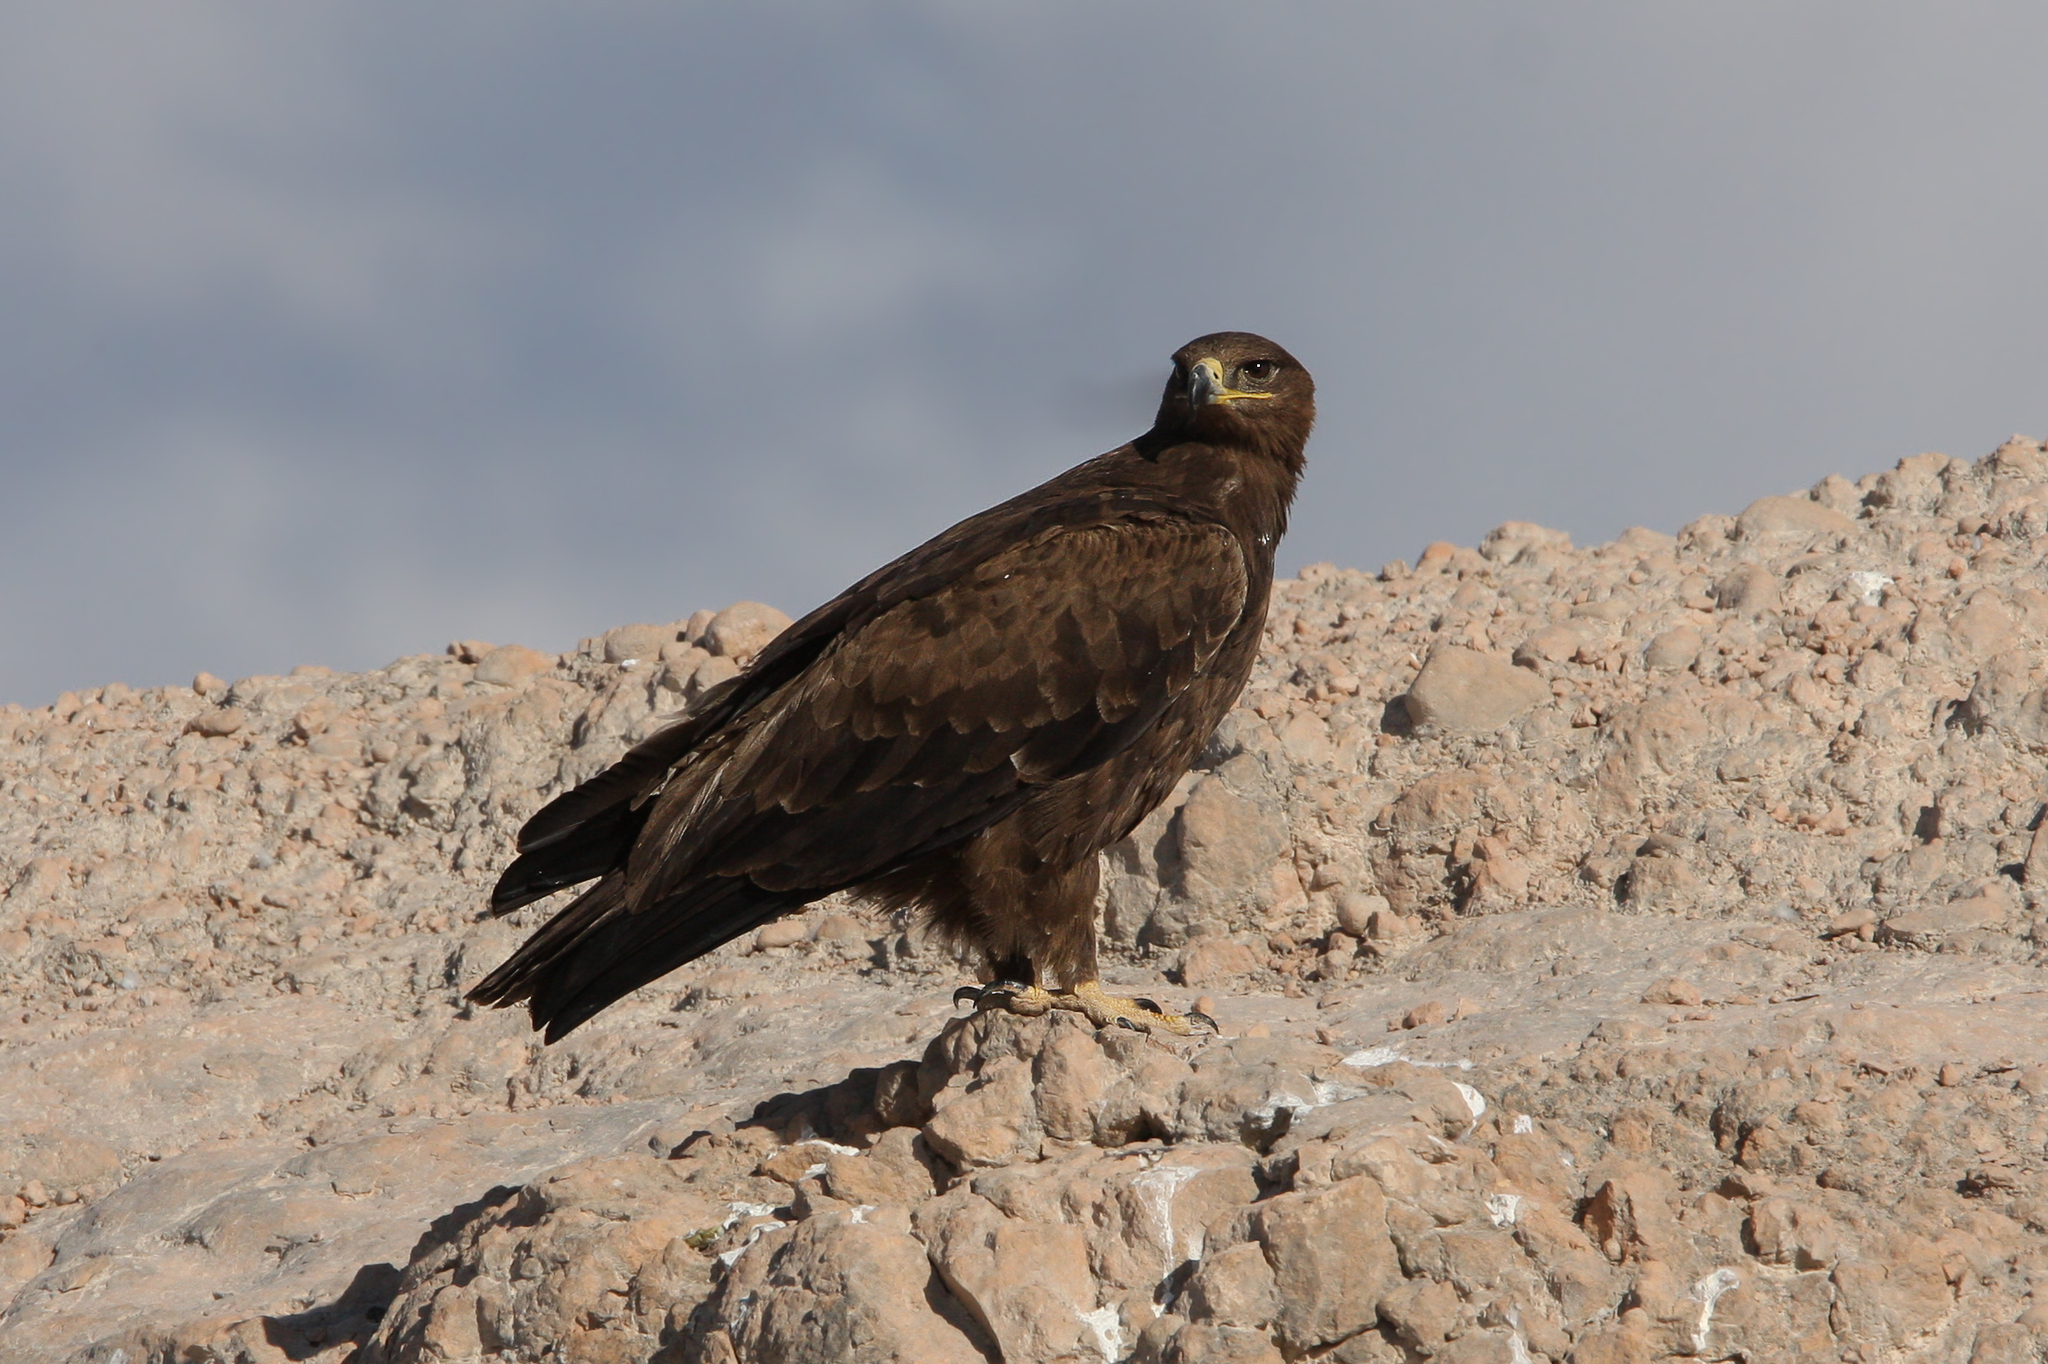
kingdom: Animalia
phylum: Chordata
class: Aves
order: Accipitriformes
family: Accipitridae
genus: Aquila
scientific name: Aquila nipalensis
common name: Steppe eagle
